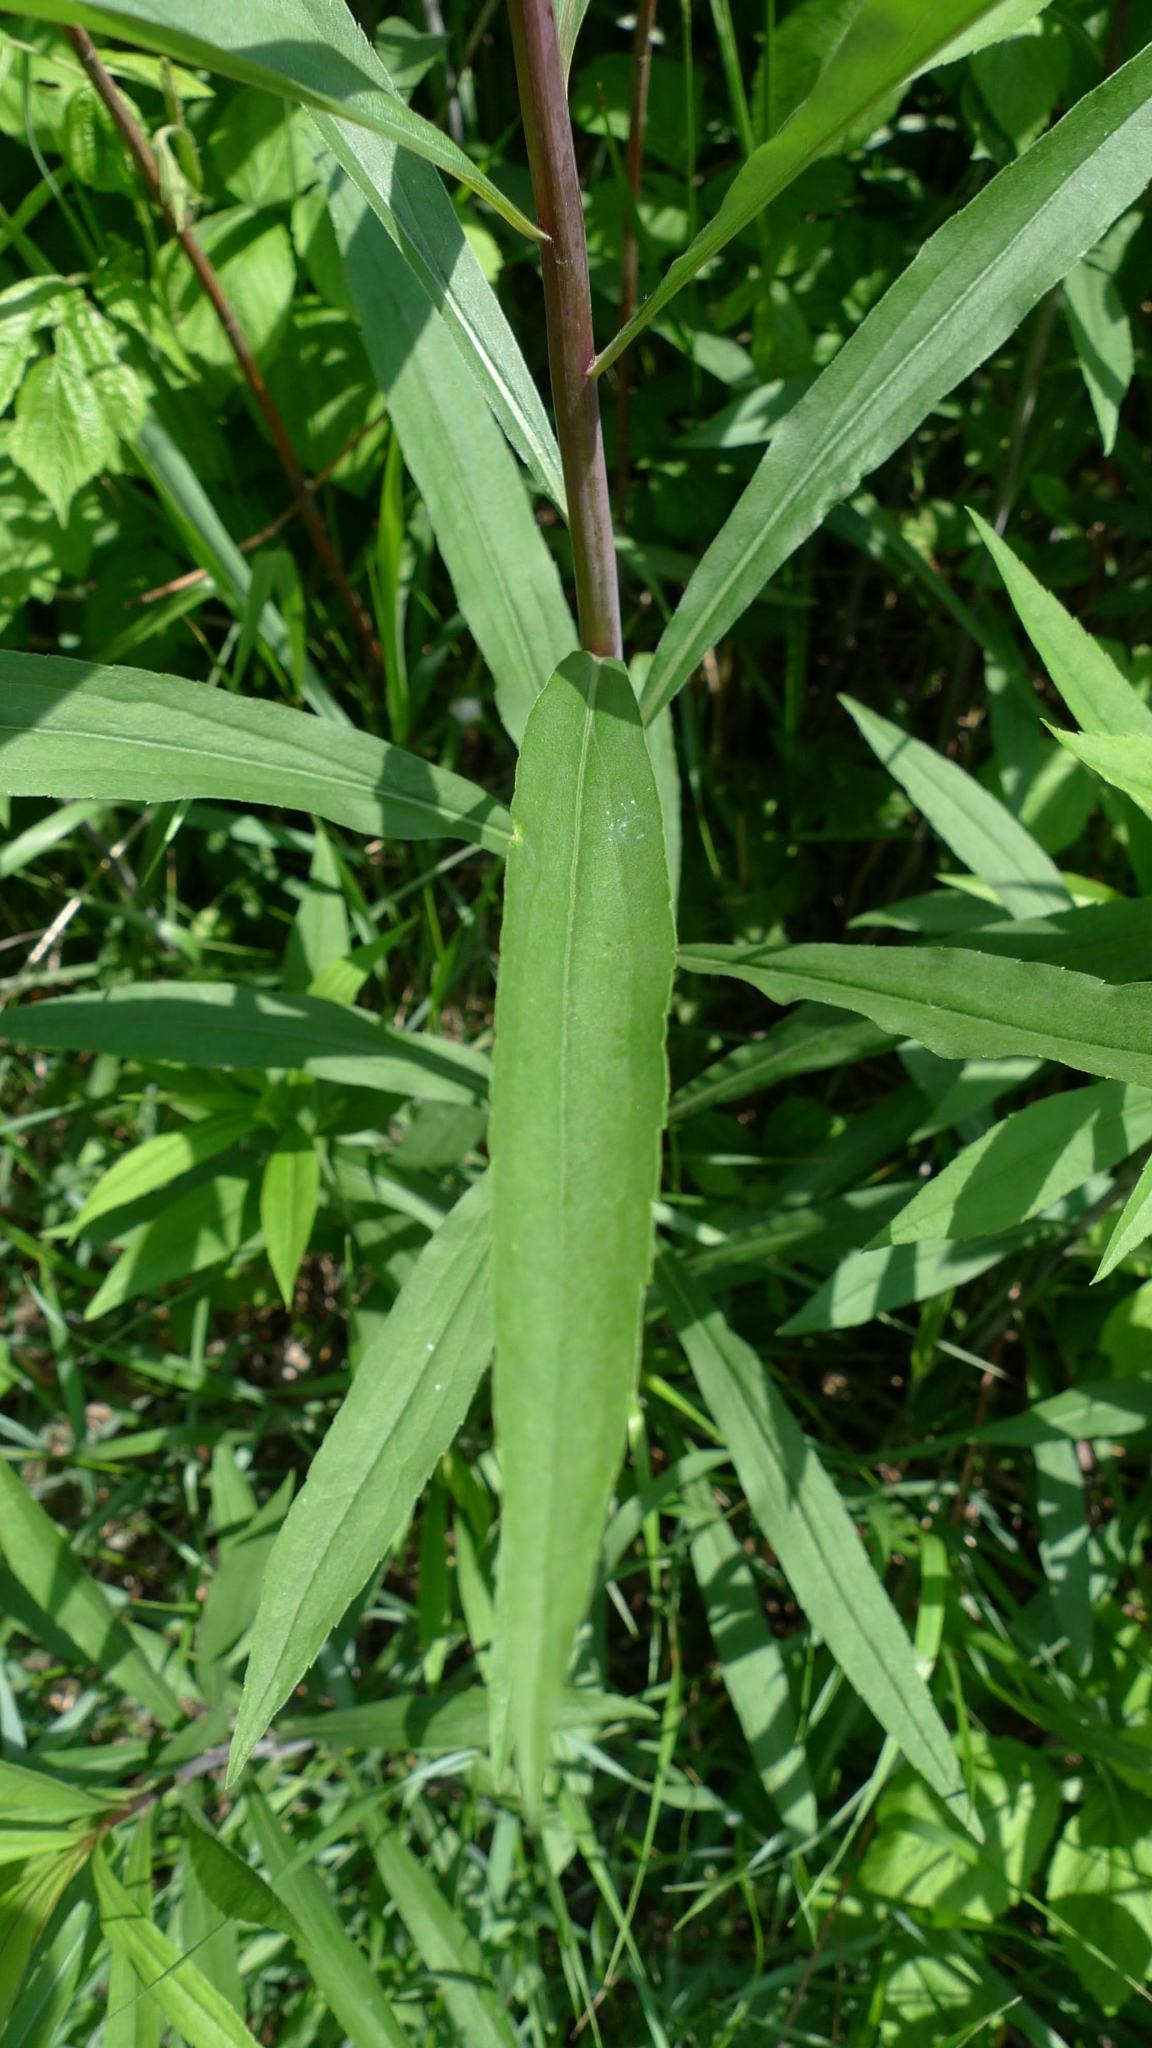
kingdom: Plantae
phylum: Tracheophyta
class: Magnoliopsida
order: Asterales
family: Asteraceae
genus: Solidago
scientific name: Solidago gigantea
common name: Giant goldenrod
